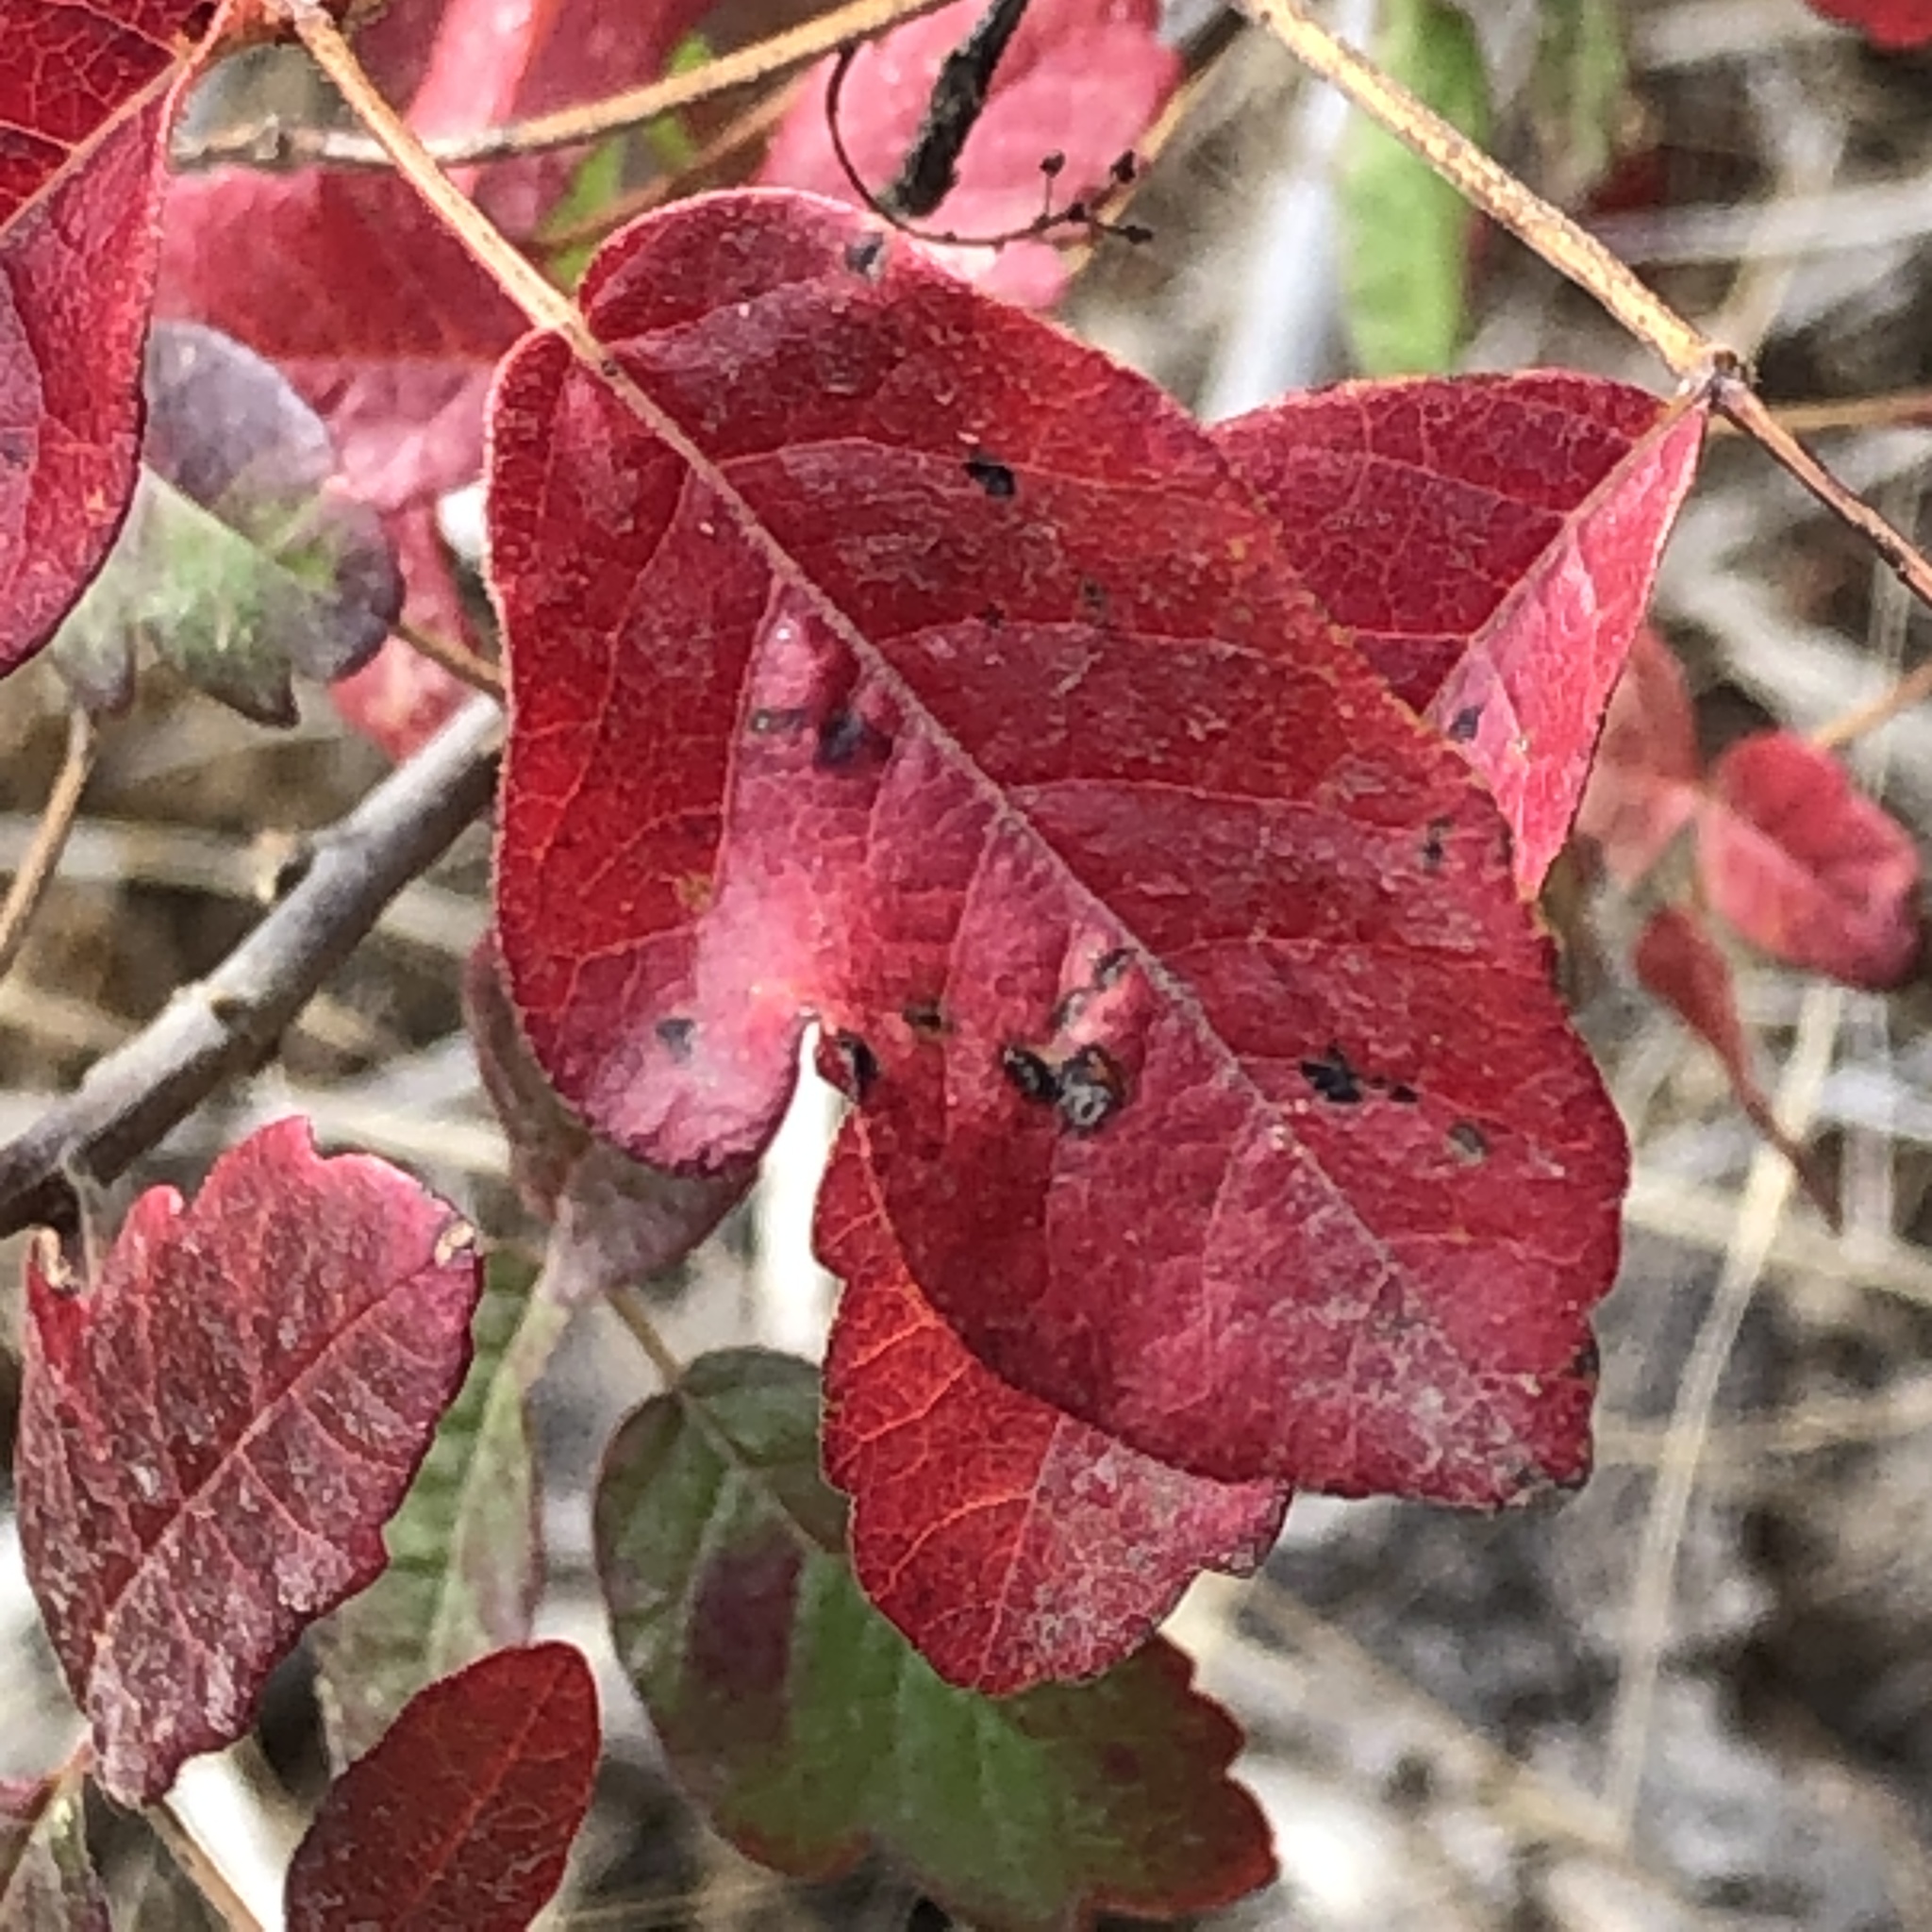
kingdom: Plantae
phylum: Tracheophyta
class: Magnoliopsida
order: Sapindales
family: Anacardiaceae
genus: Toxicodendron
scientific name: Toxicodendron diversilobum
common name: Pacific poison-oak
